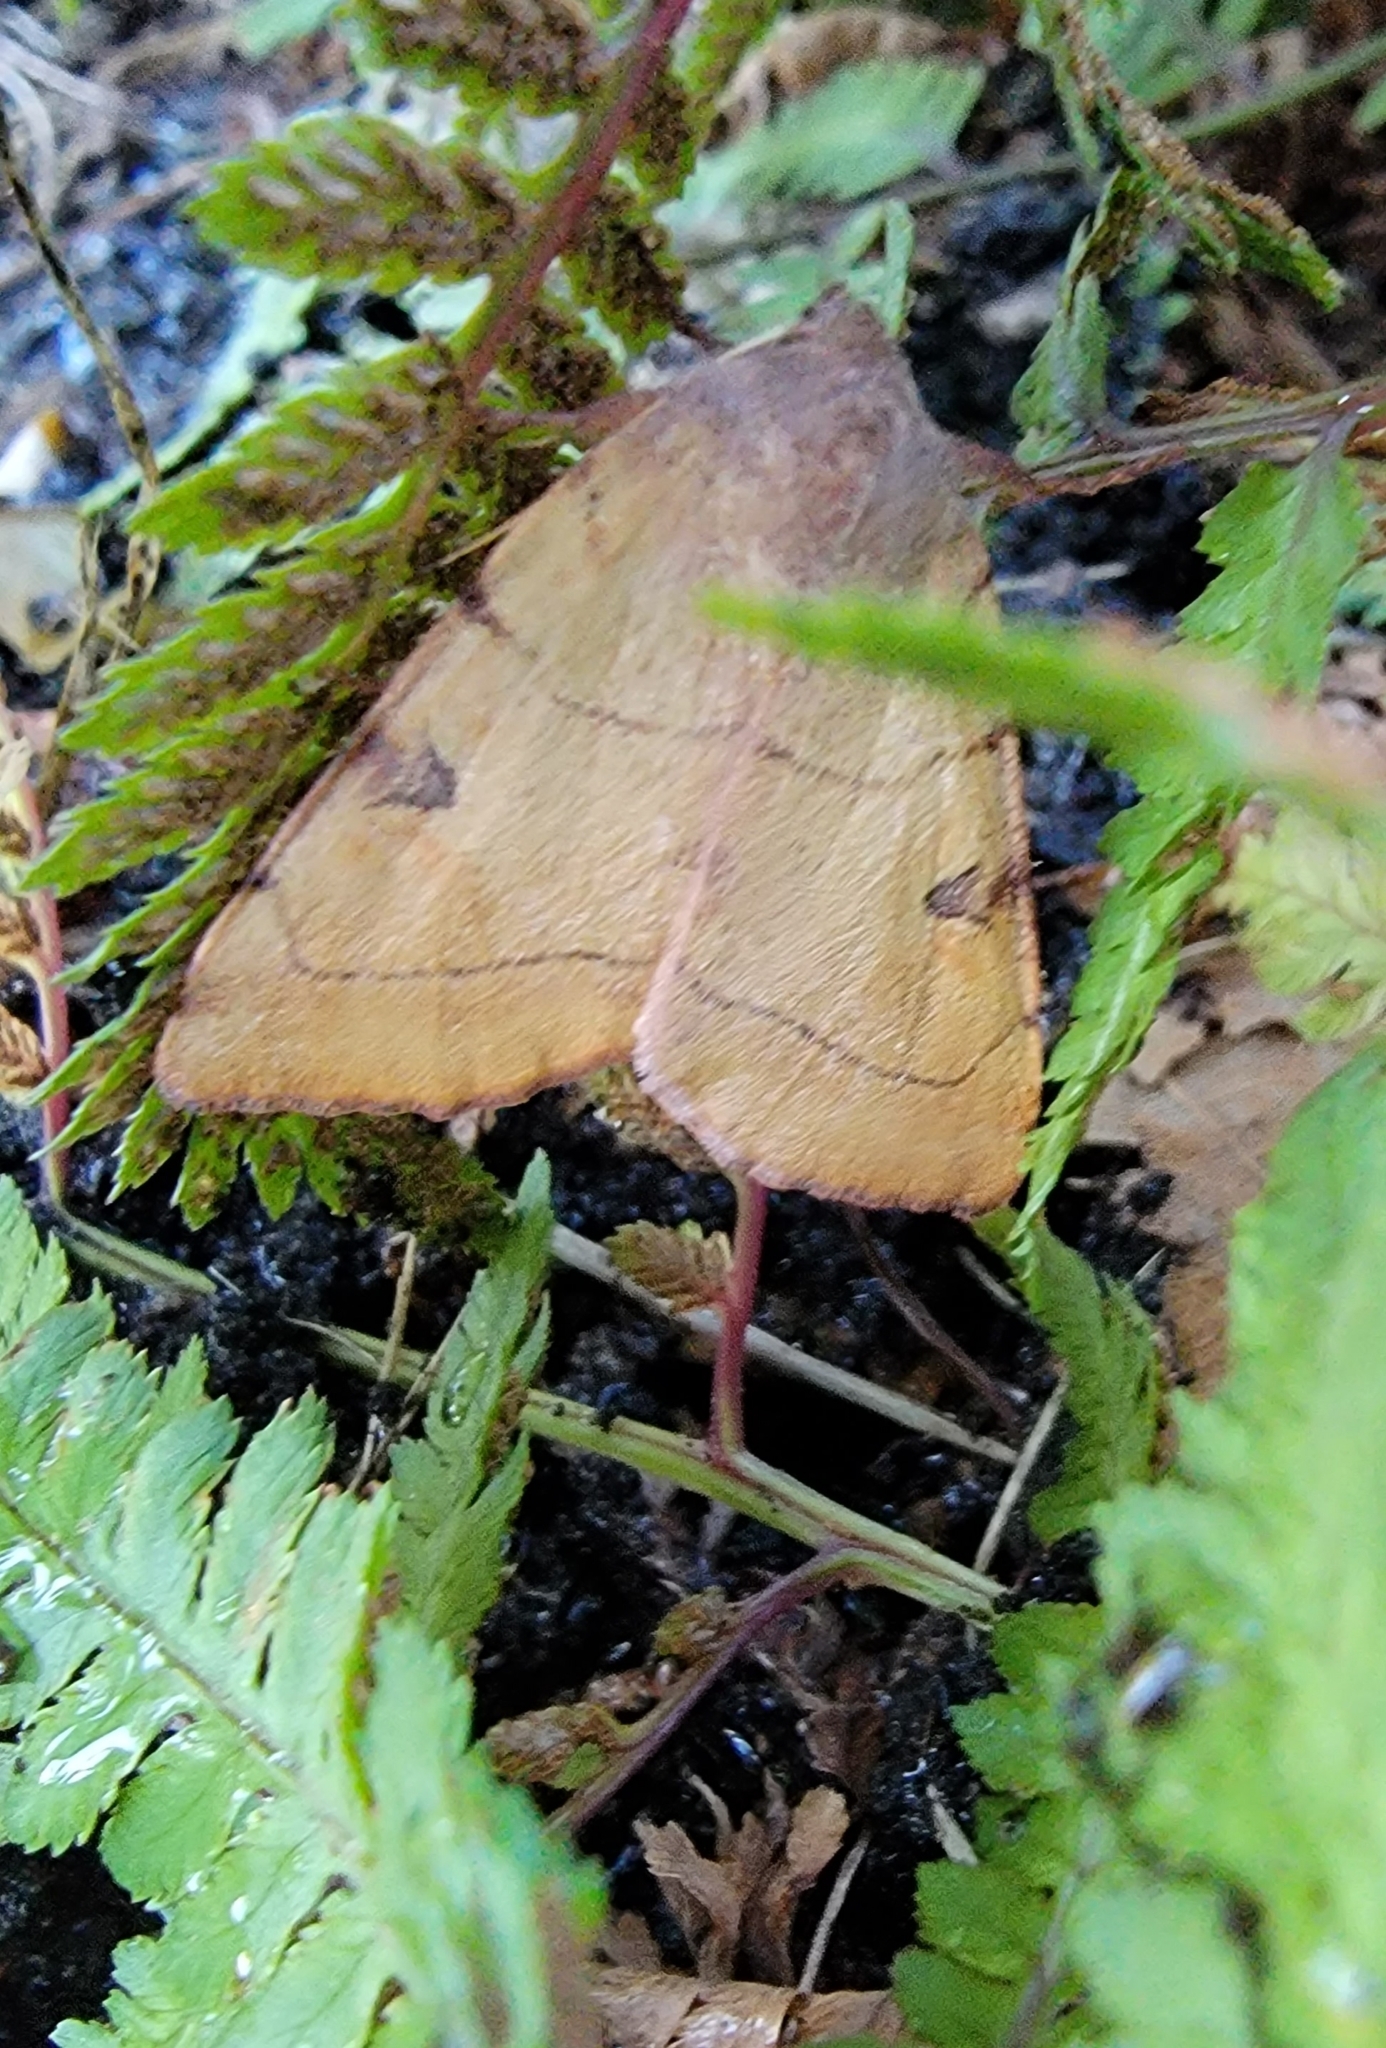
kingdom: Animalia
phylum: Arthropoda
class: Insecta
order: Lepidoptera
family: Noctuidae
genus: Choephora
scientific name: Choephora fungorum
